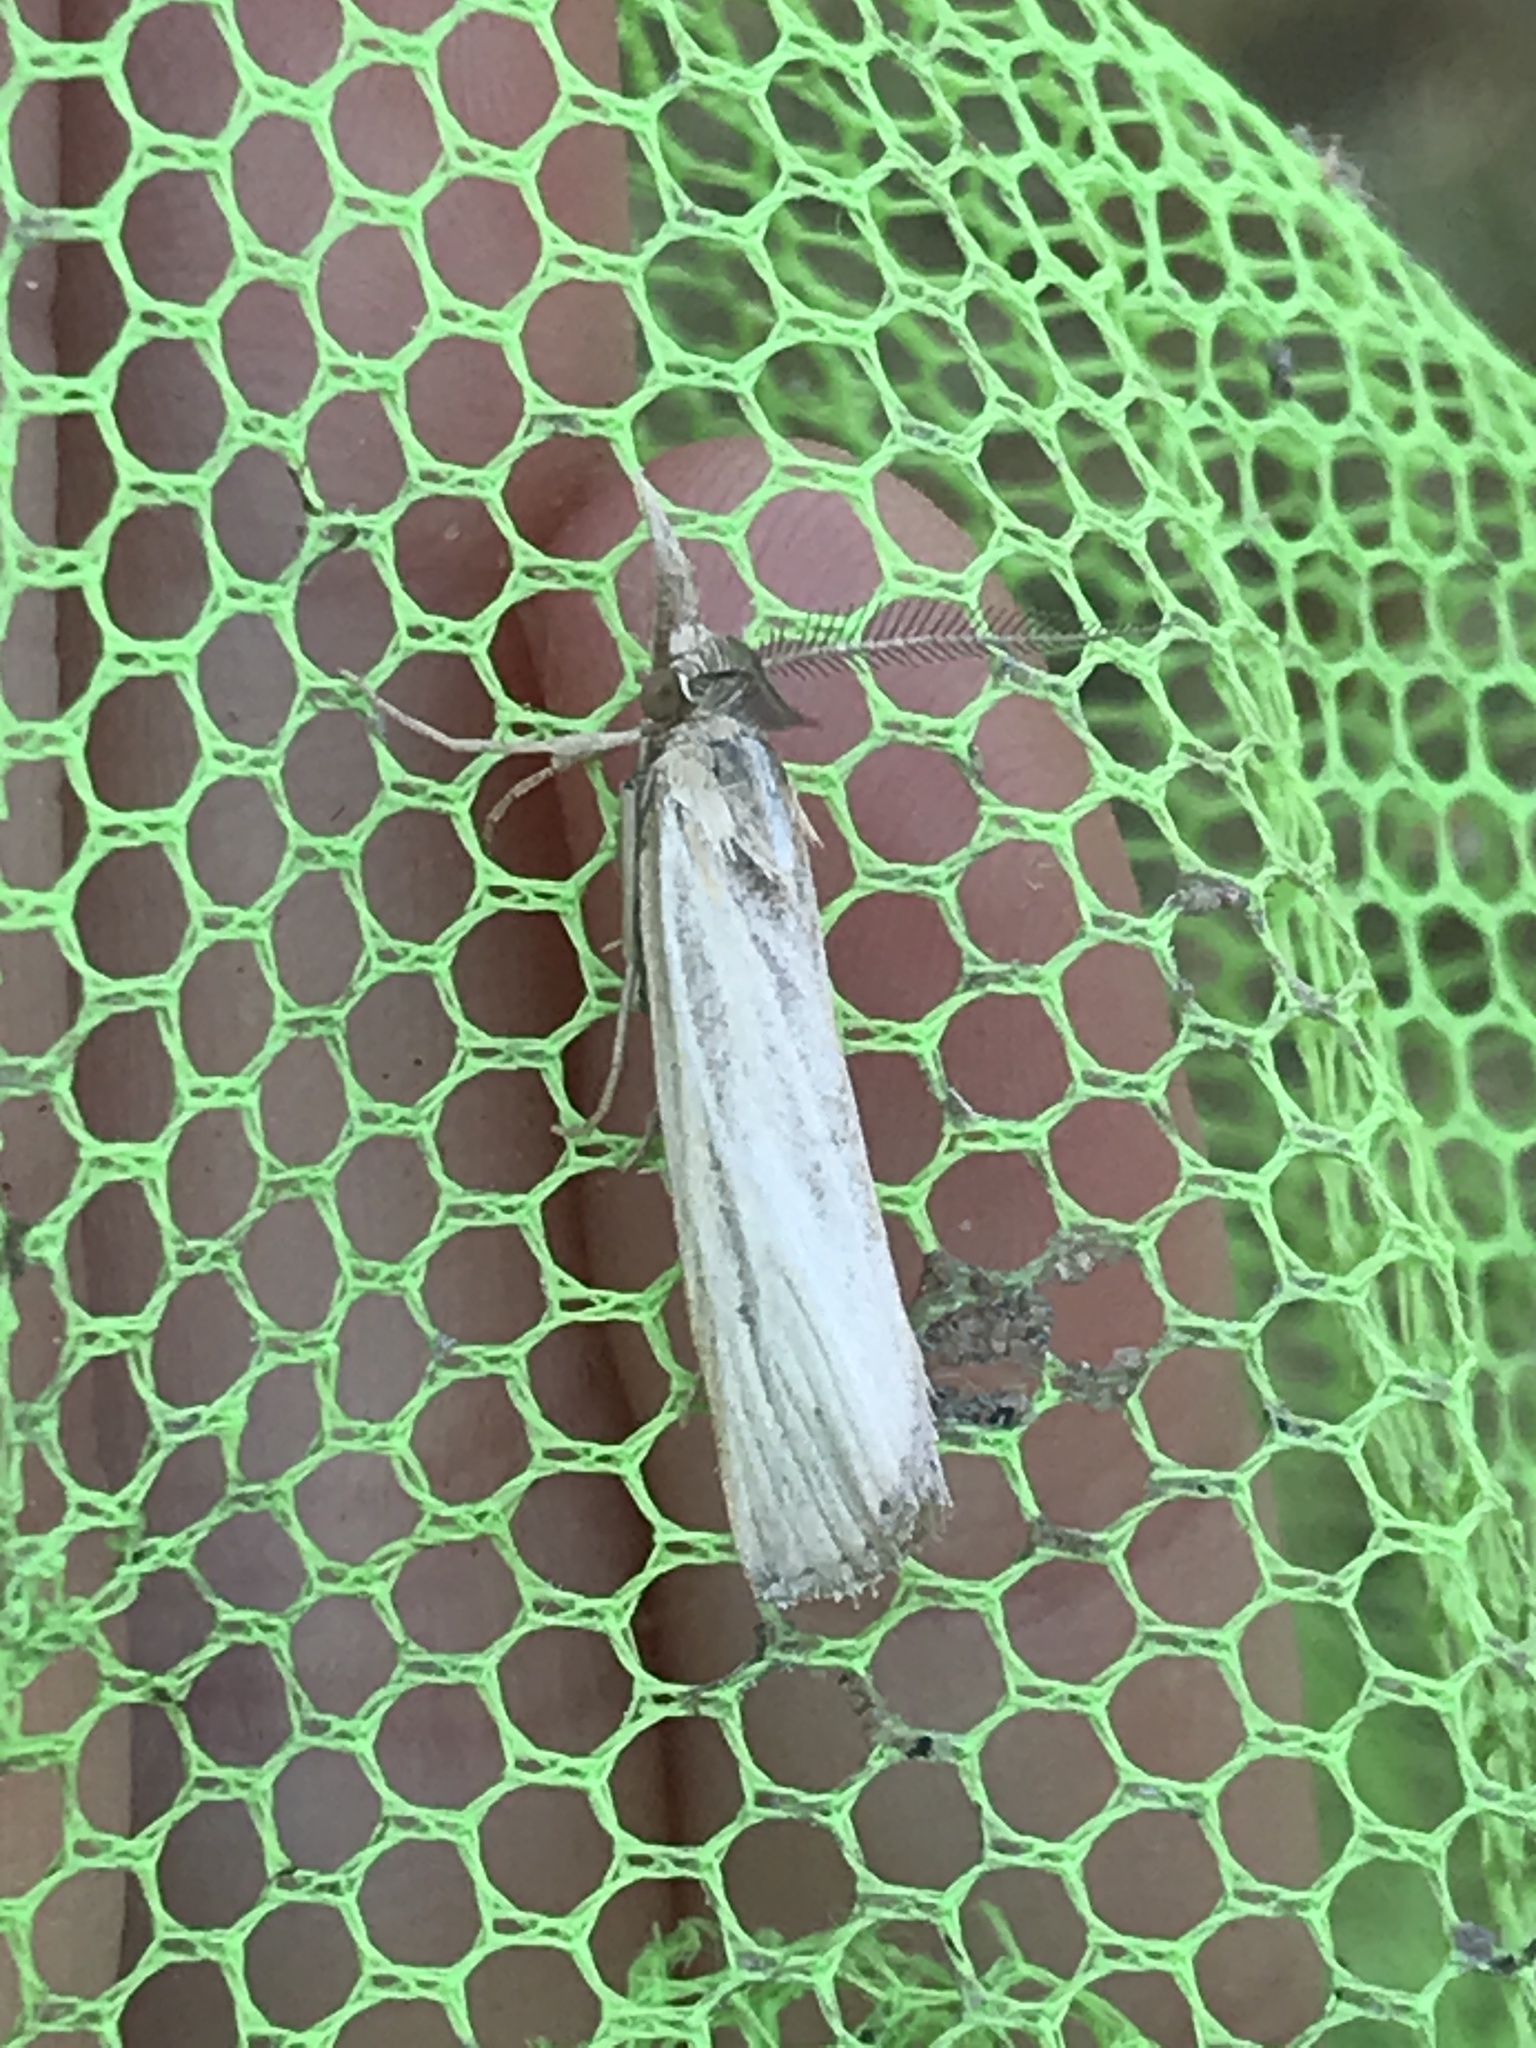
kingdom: Animalia
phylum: Arthropoda
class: Insecta
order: Lepidoptera
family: Crambidae
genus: Agriphila
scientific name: Agriphila vulgivagellus
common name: Vagabond crambus moth
